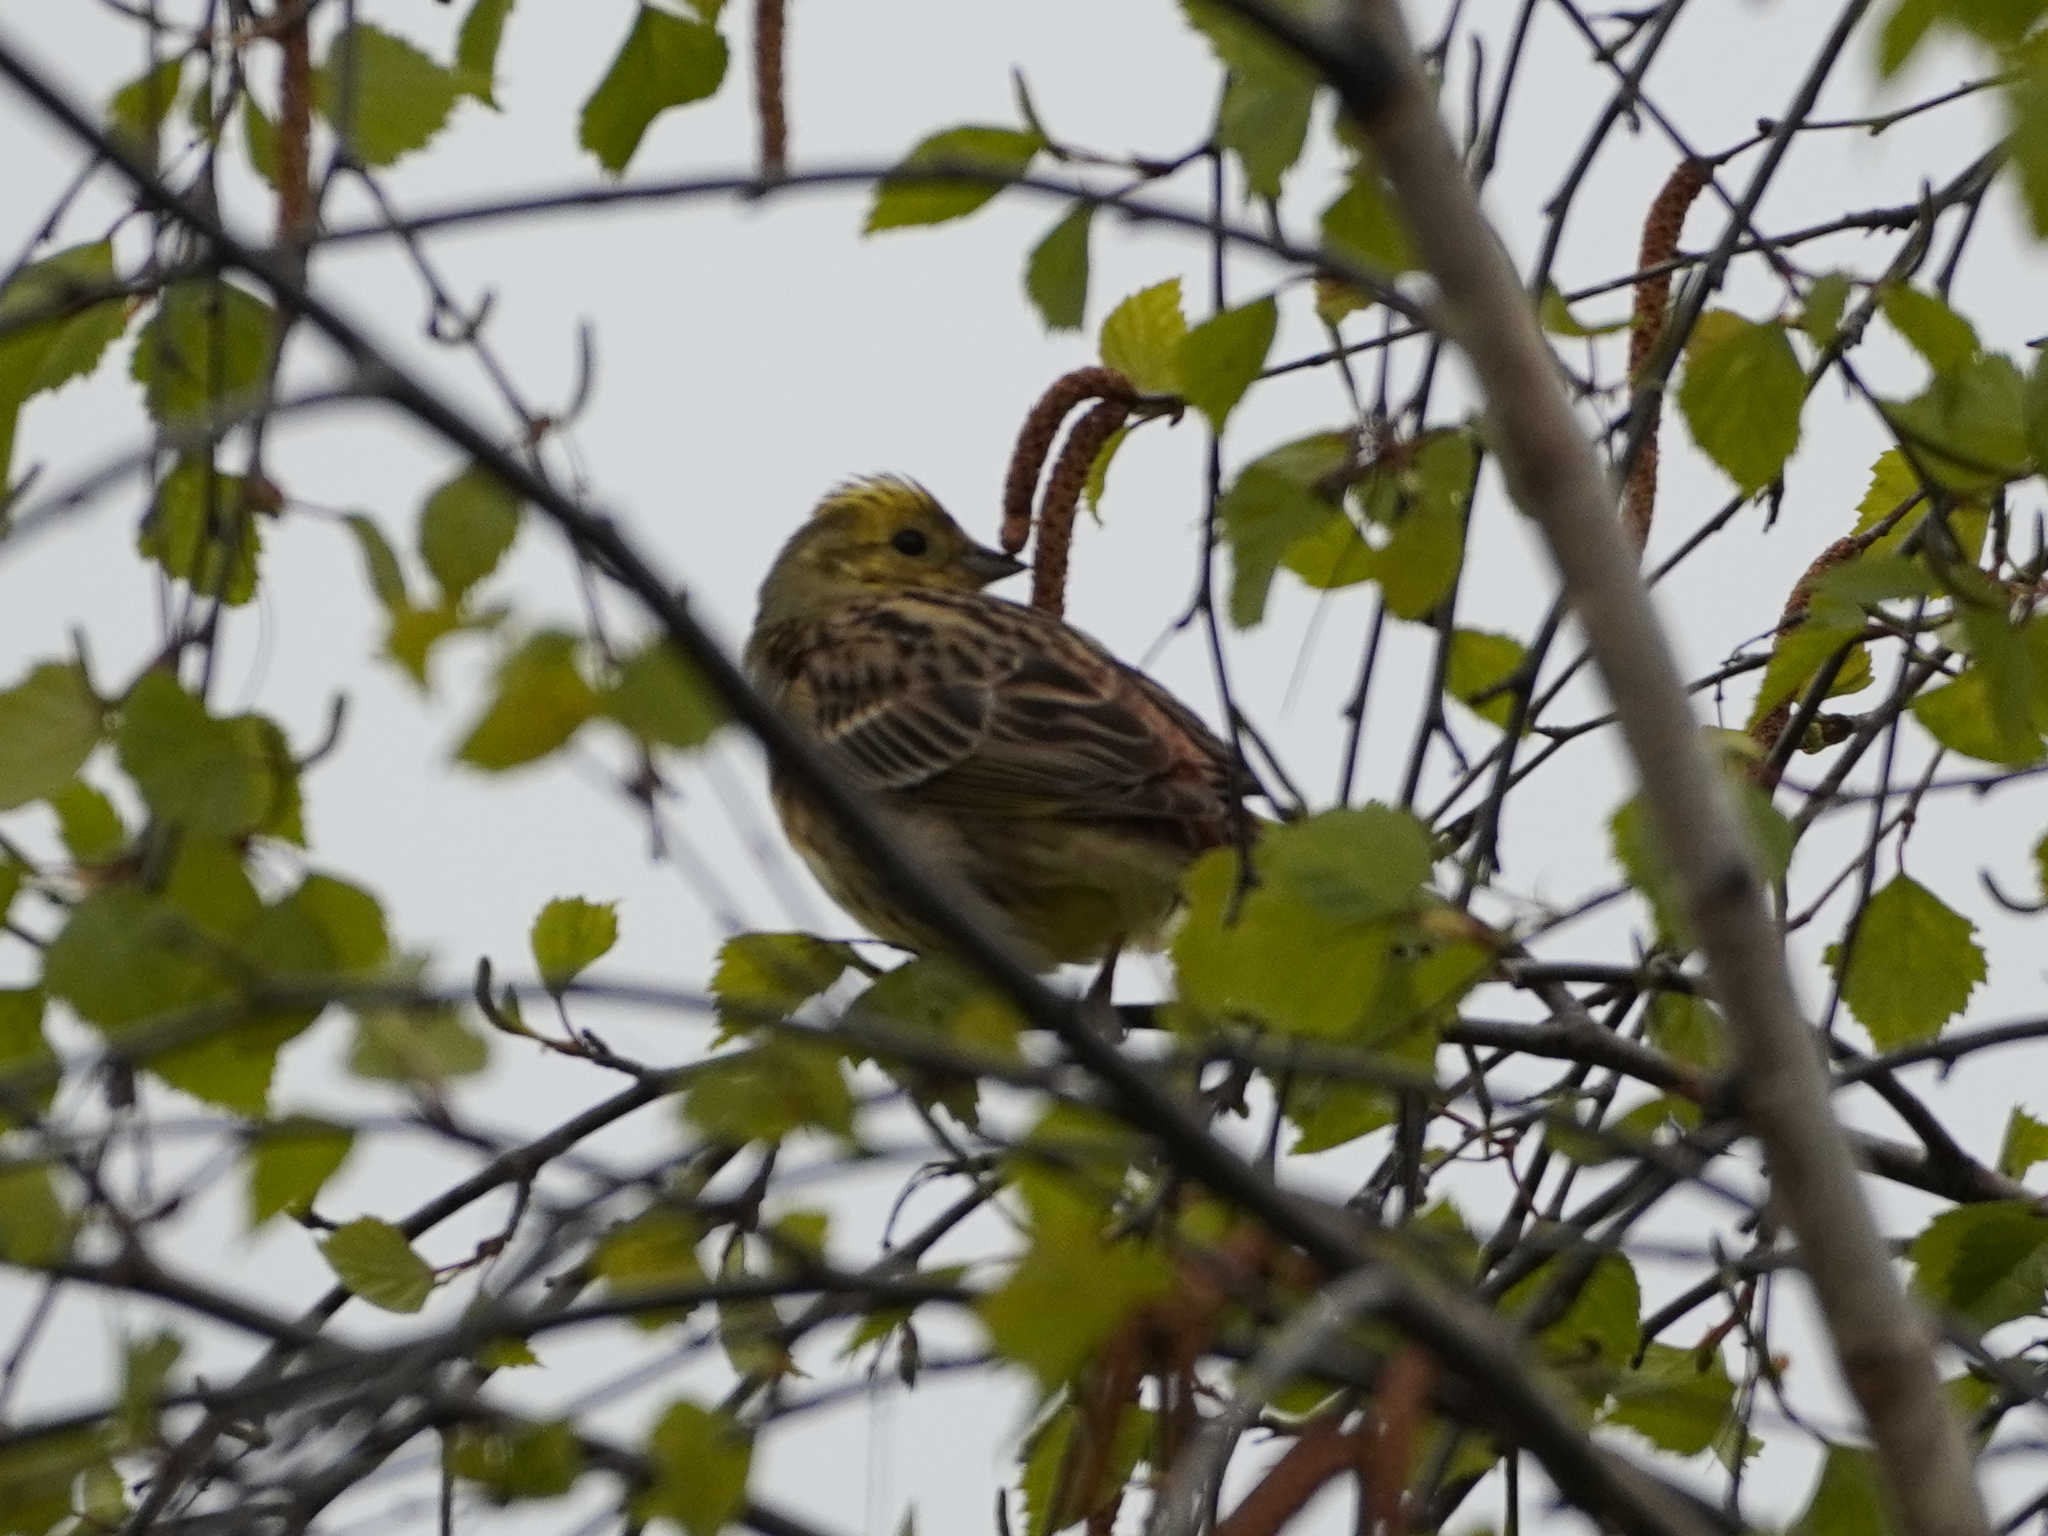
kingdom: Animalia
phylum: Chordata
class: Aves
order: Passeriformes
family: Emberizidae
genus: Emberiza
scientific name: Emberiza citrinella
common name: Yellowhammer
